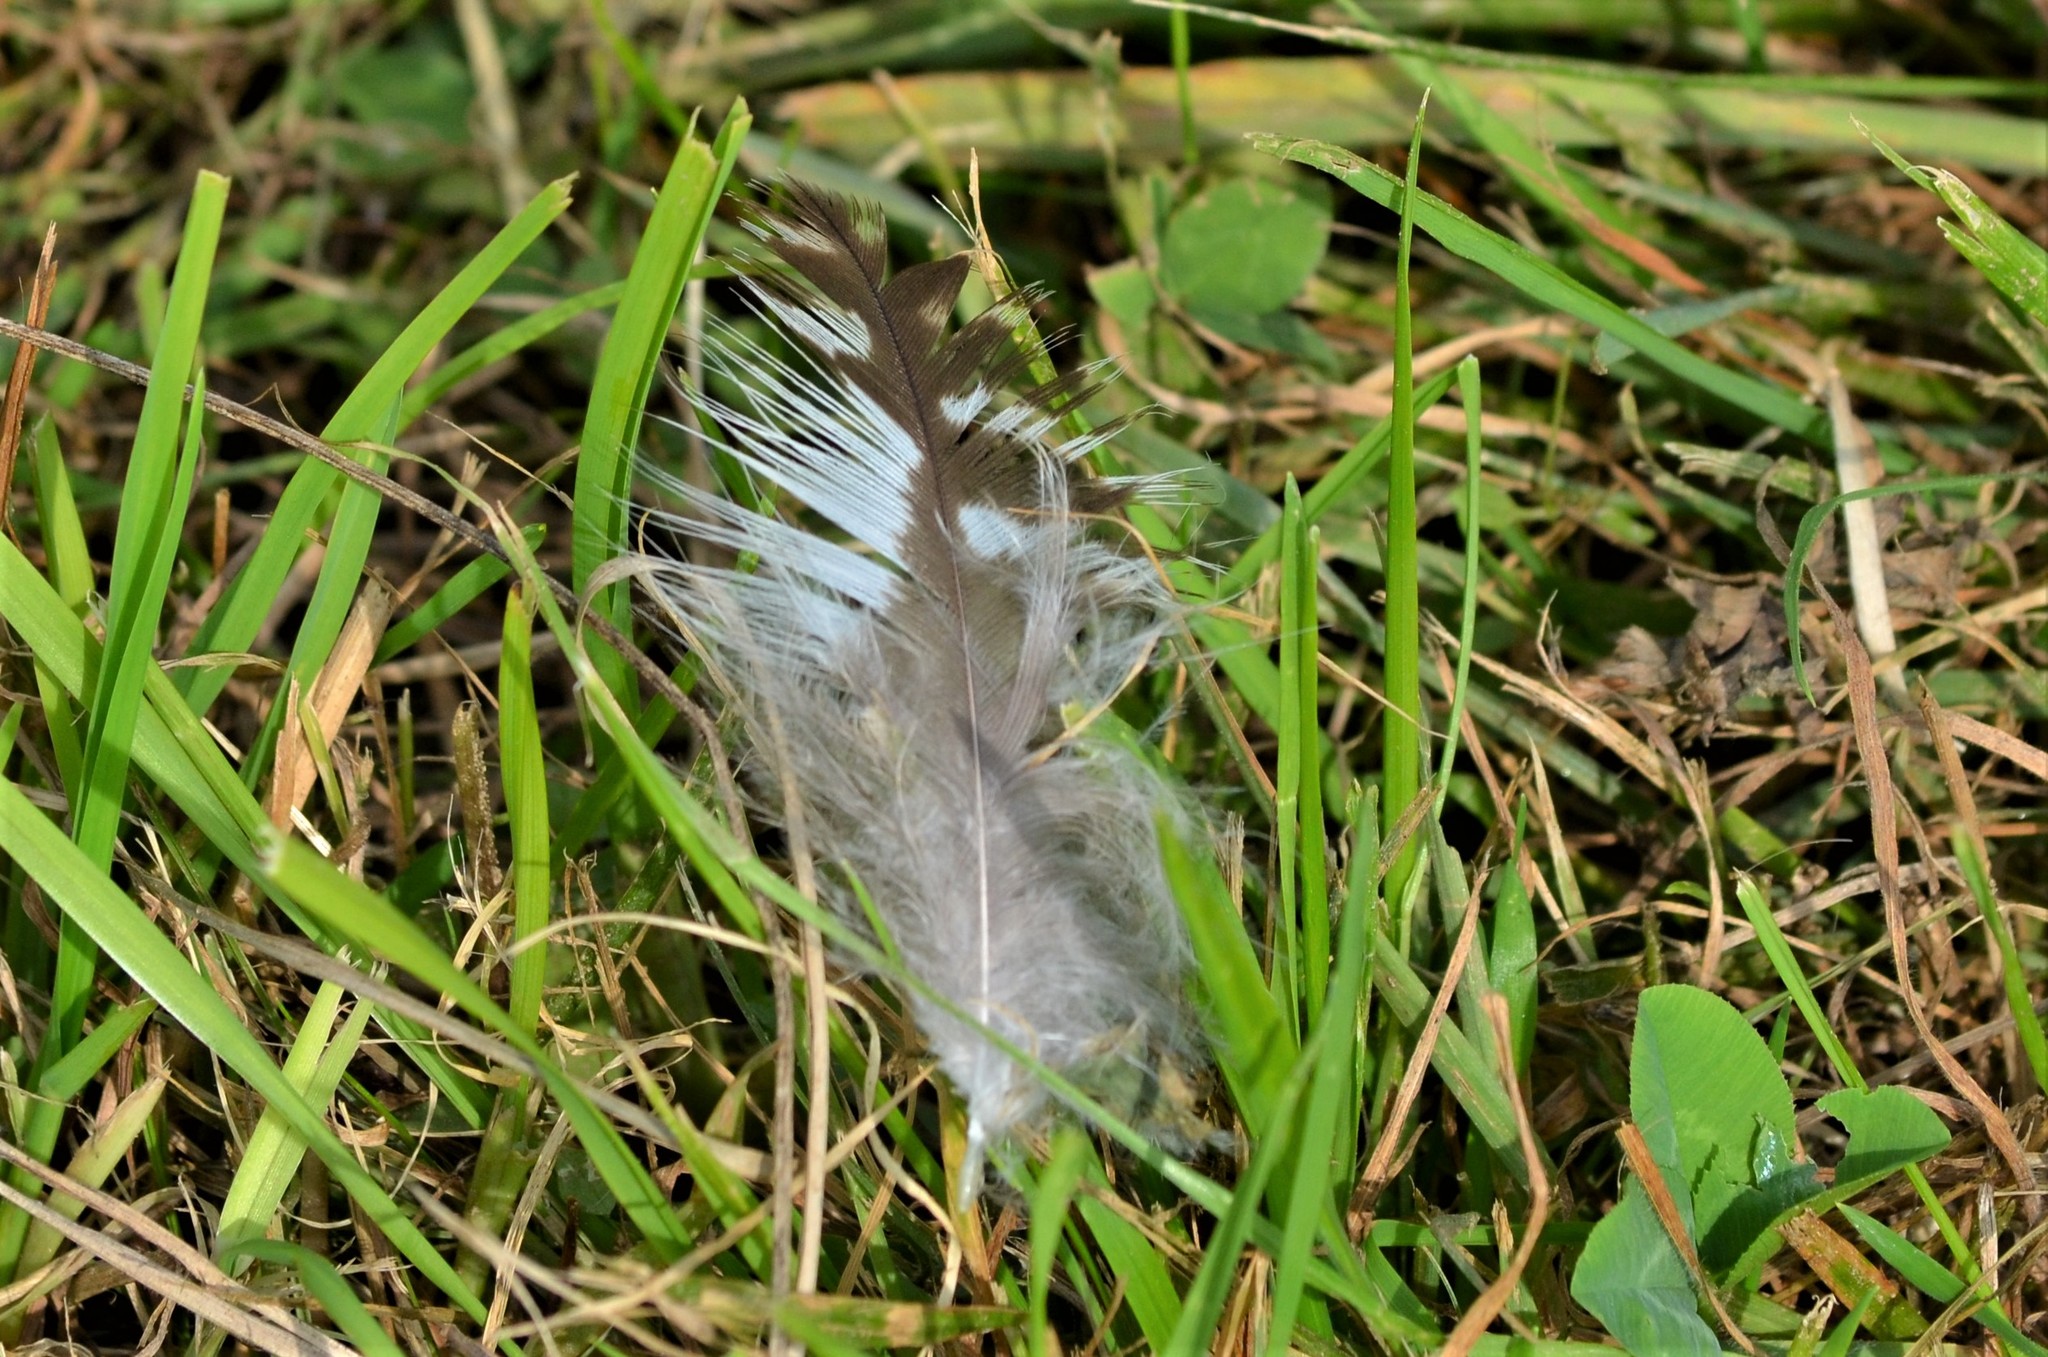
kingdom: Animalia
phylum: Chordata
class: Aves
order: Accipitriformes
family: Accipitridae
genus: Buteo
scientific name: Buteo buteo
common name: Common buzzard
